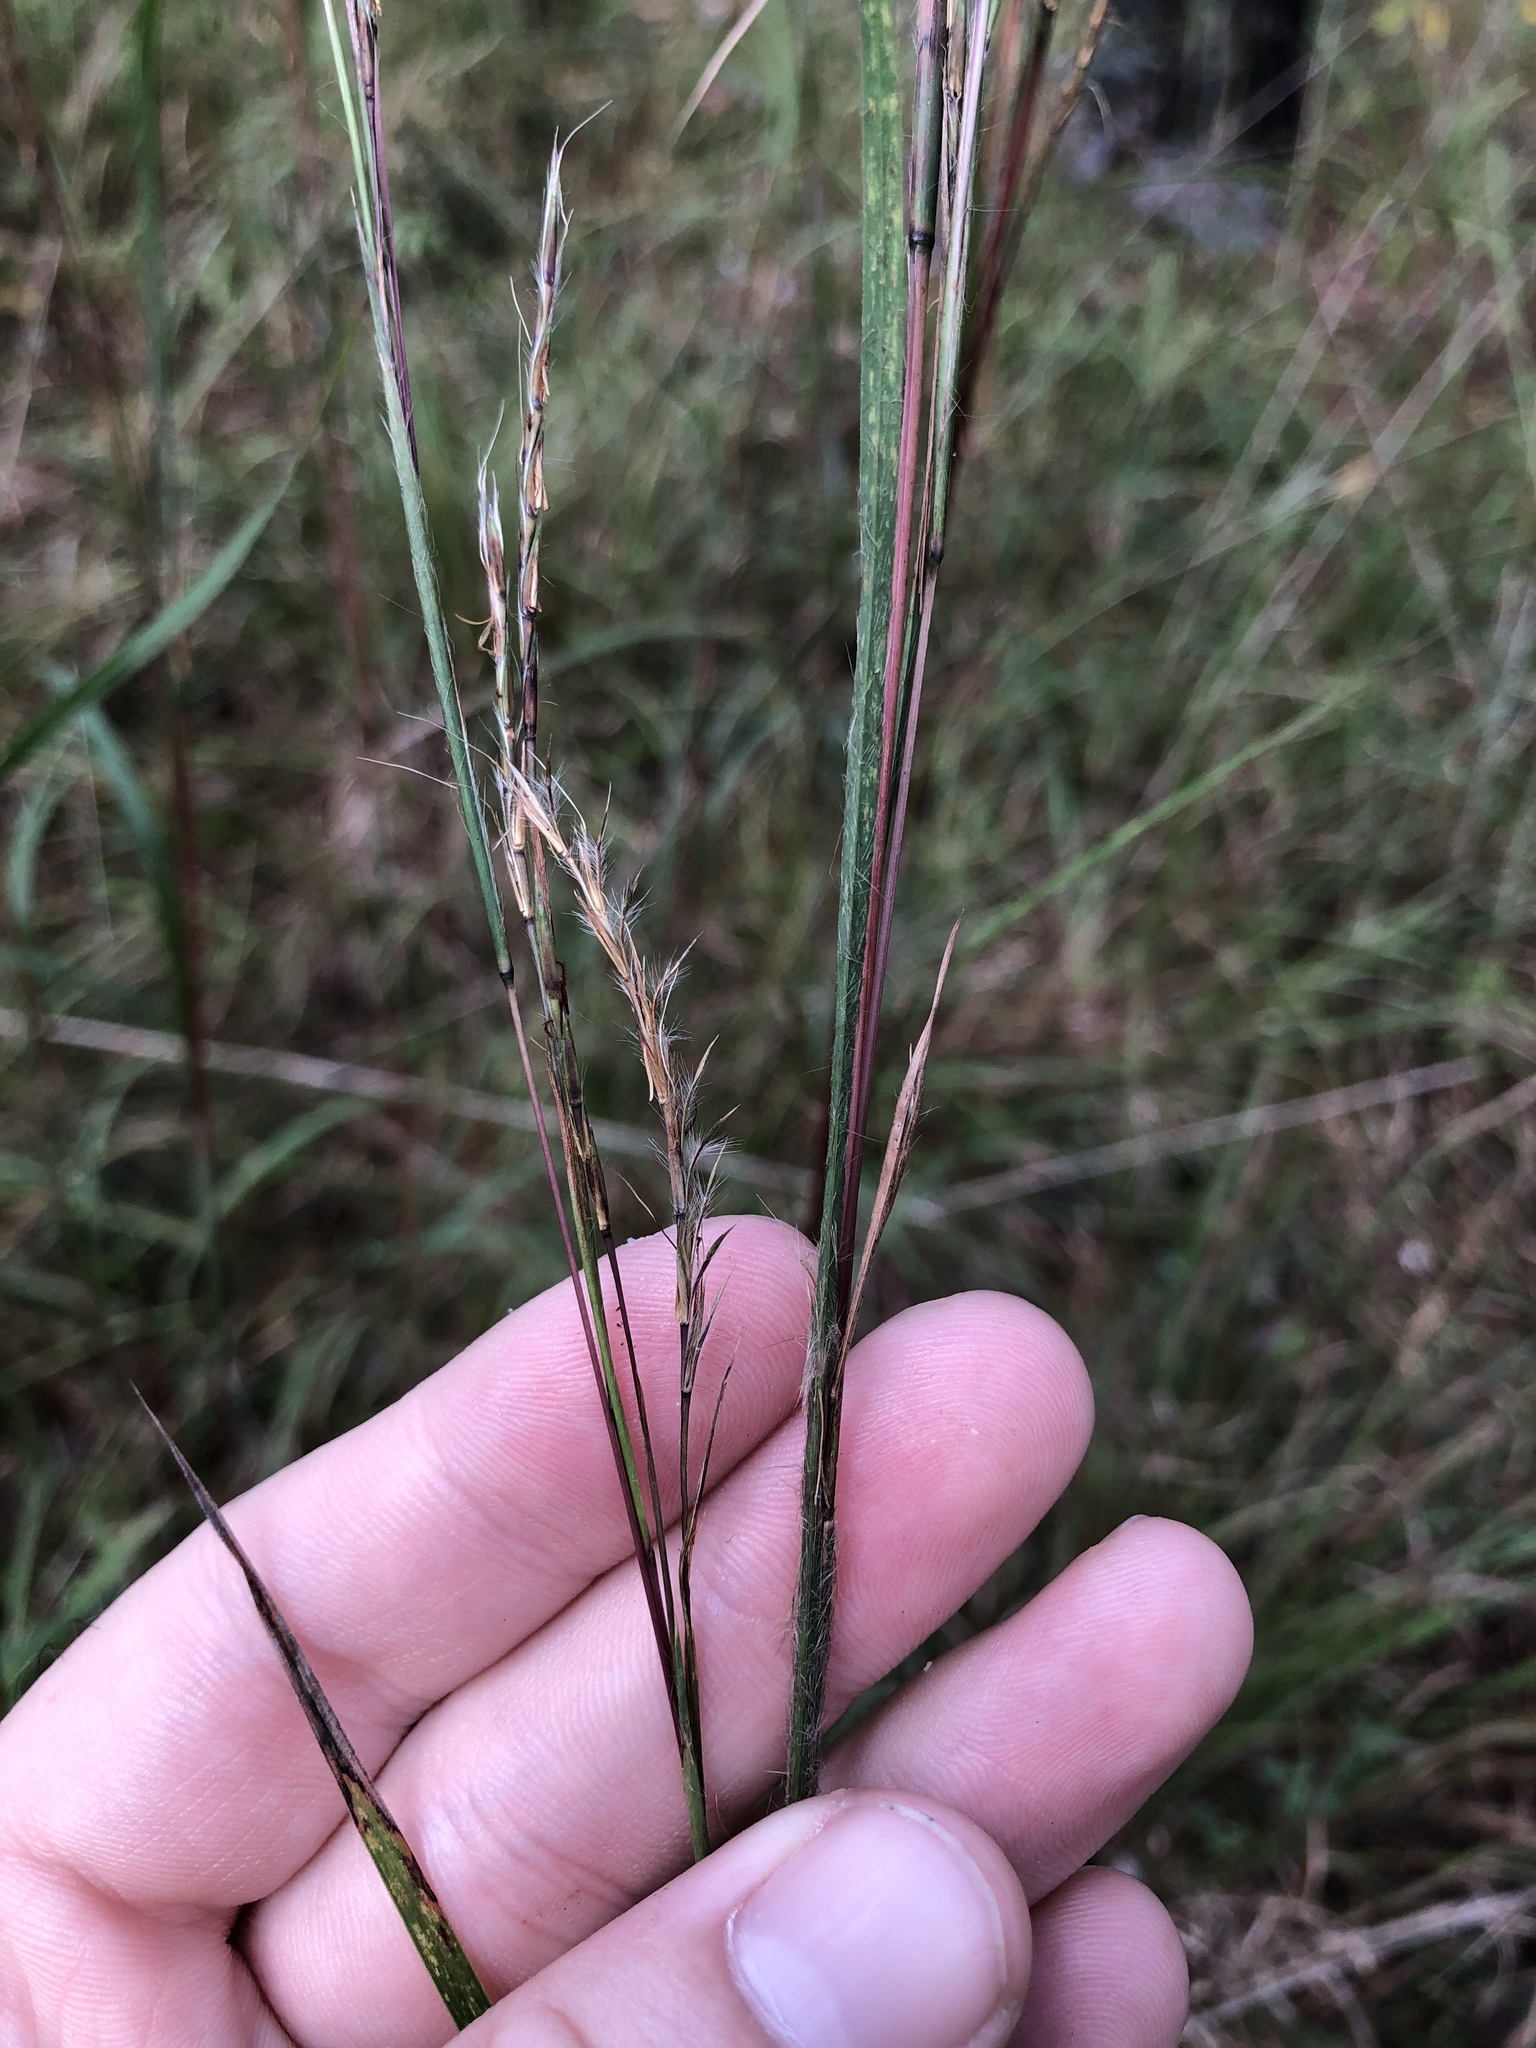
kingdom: Plantae
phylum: Tracheophyta
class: Liliopsida
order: Poales
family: Poaceae
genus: Schizachyrium
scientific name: Schizachyrium scoparium
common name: Little bluestem
